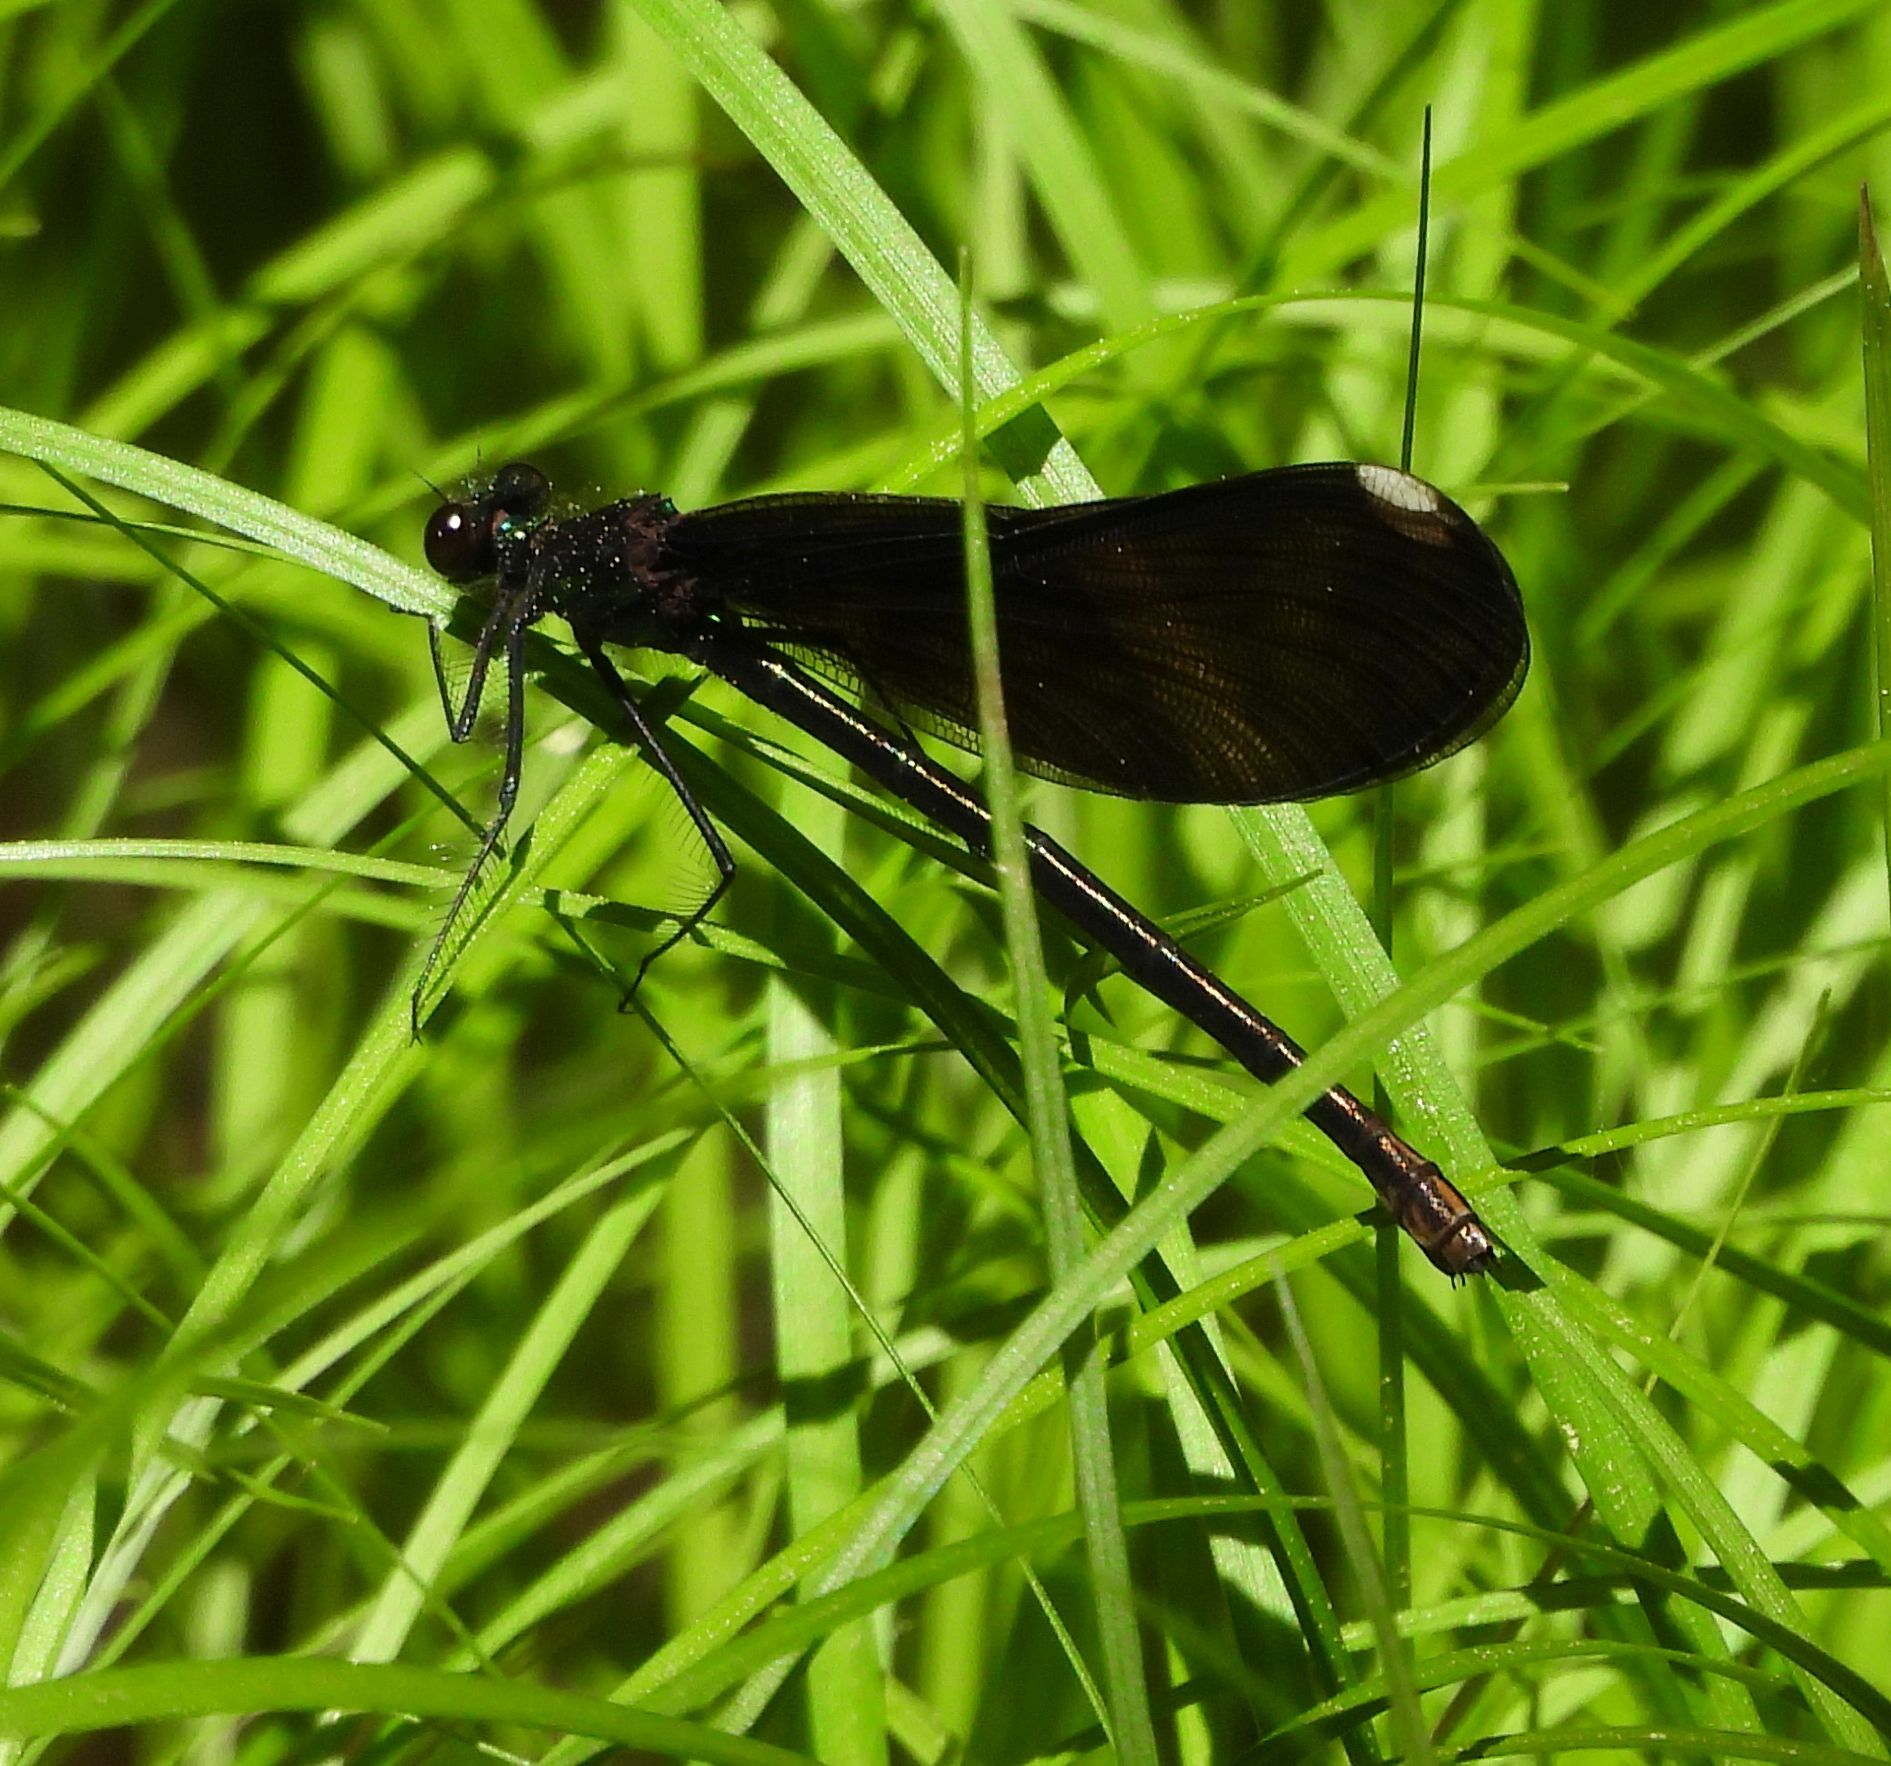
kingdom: Animalia
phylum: Arthropoda
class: Insecta
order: Odonata
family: Calopterygidae
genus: Calopteryx
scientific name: Calopteryx maculata
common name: Ebony jewelwing
